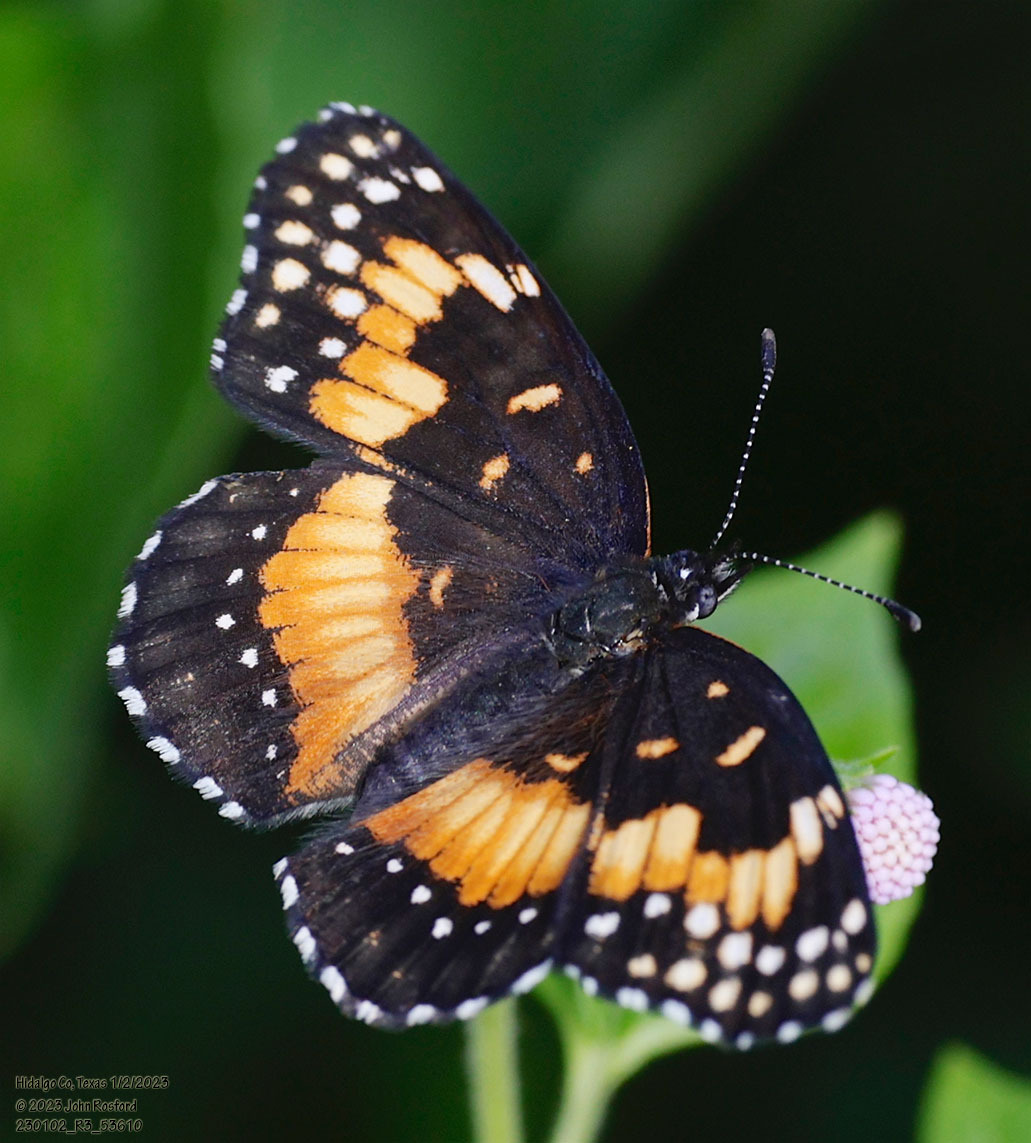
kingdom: Animalia
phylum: Arthropoda
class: Insecta
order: Lepidoptera
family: Nymphalidae
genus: Chlosyne
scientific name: Chlosyne lacinia
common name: Bordered patch
